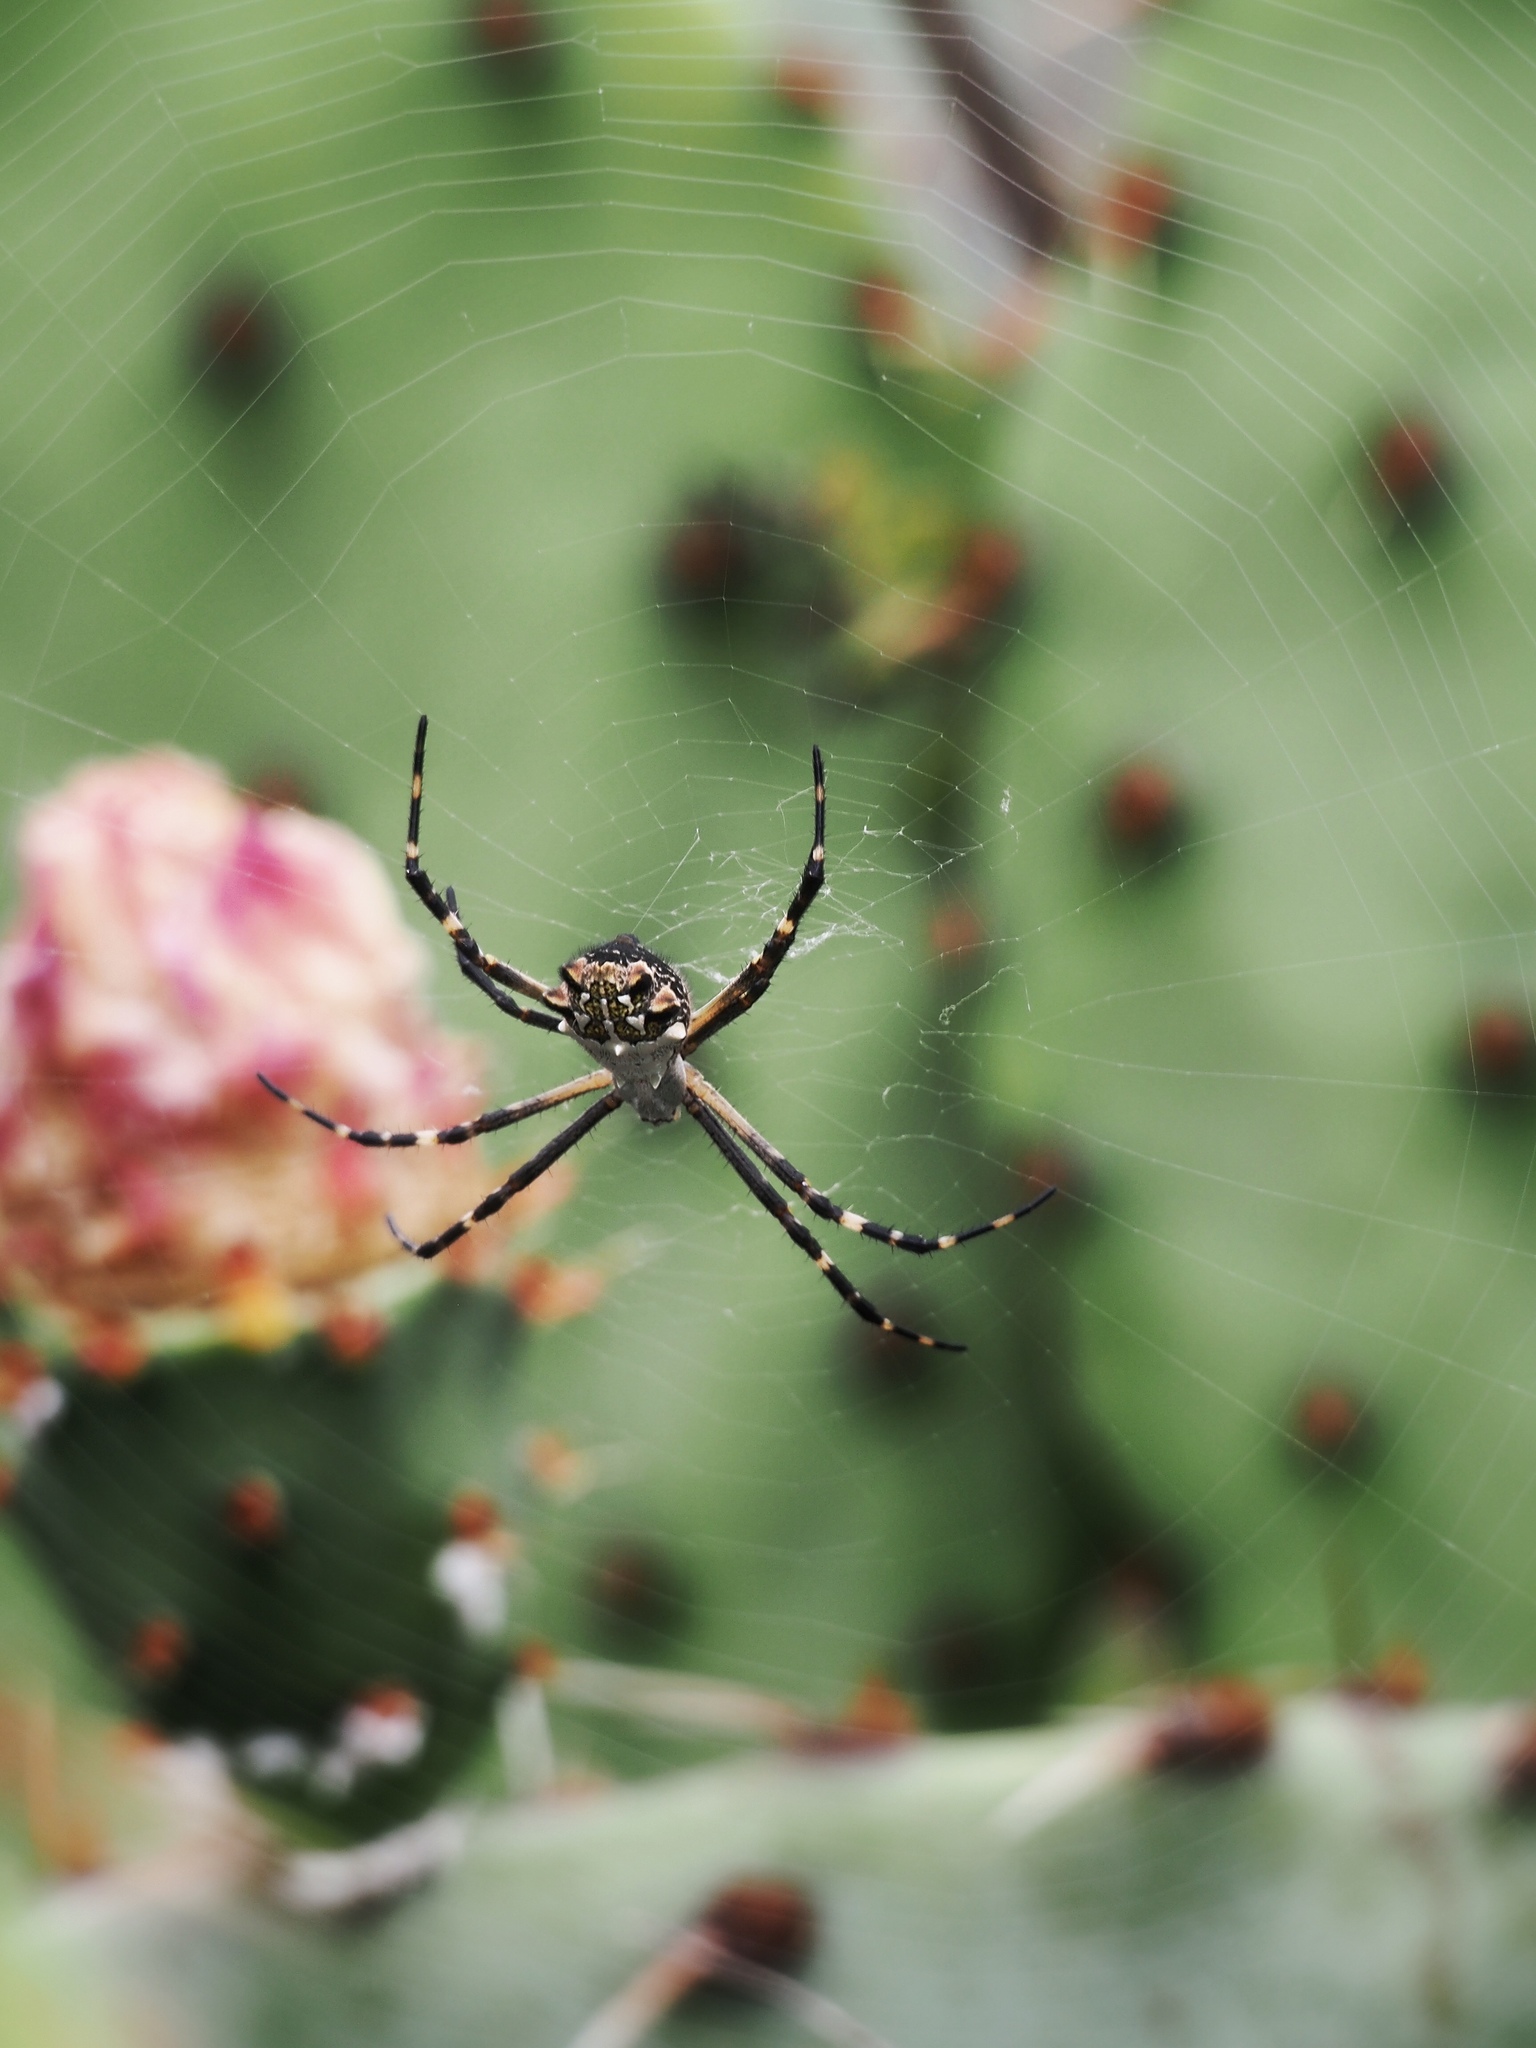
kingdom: Animalia
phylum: Arthropoda
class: Arachnida
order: Araneae
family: Araneidae
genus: Argiope
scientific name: Argiope argentata
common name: Orb weavers
